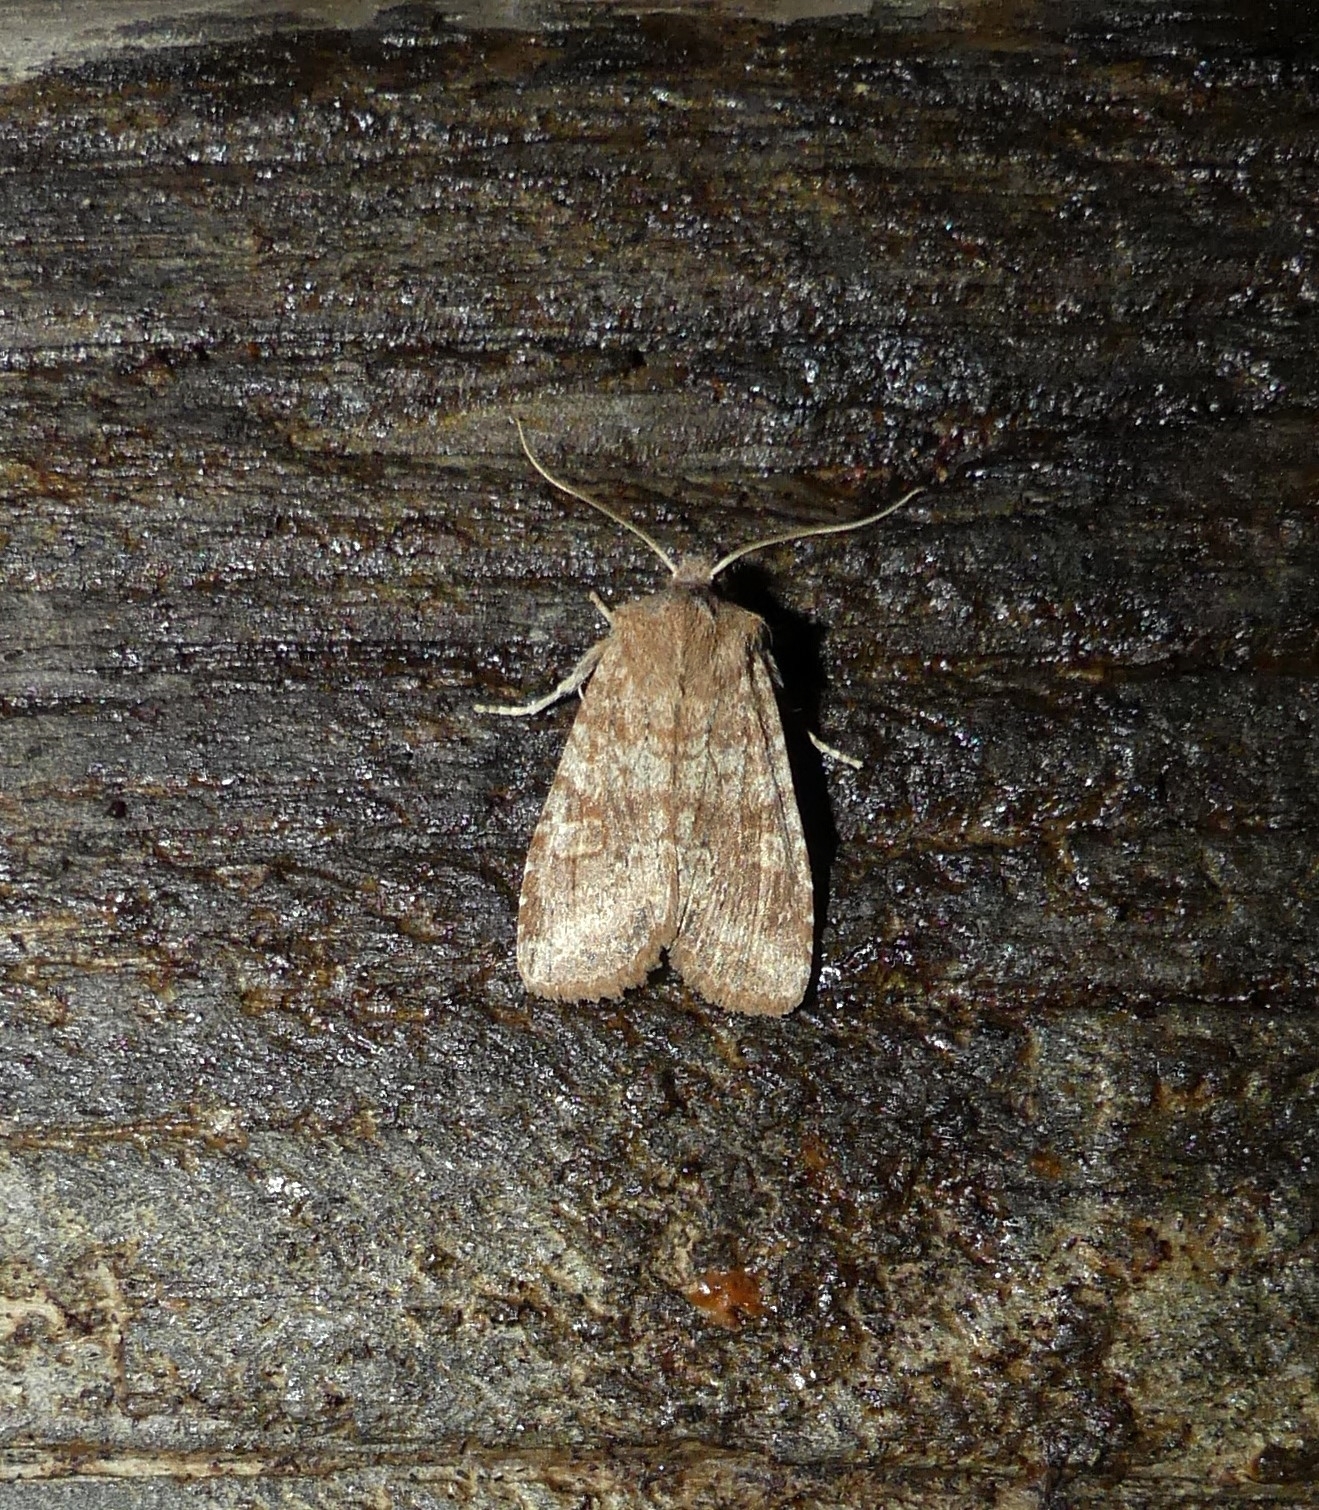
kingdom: Animalia
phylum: Arthropoda
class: Insecta
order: Lepidoptera
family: Noctuidae
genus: Lithophane
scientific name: Lithophane semiusta
